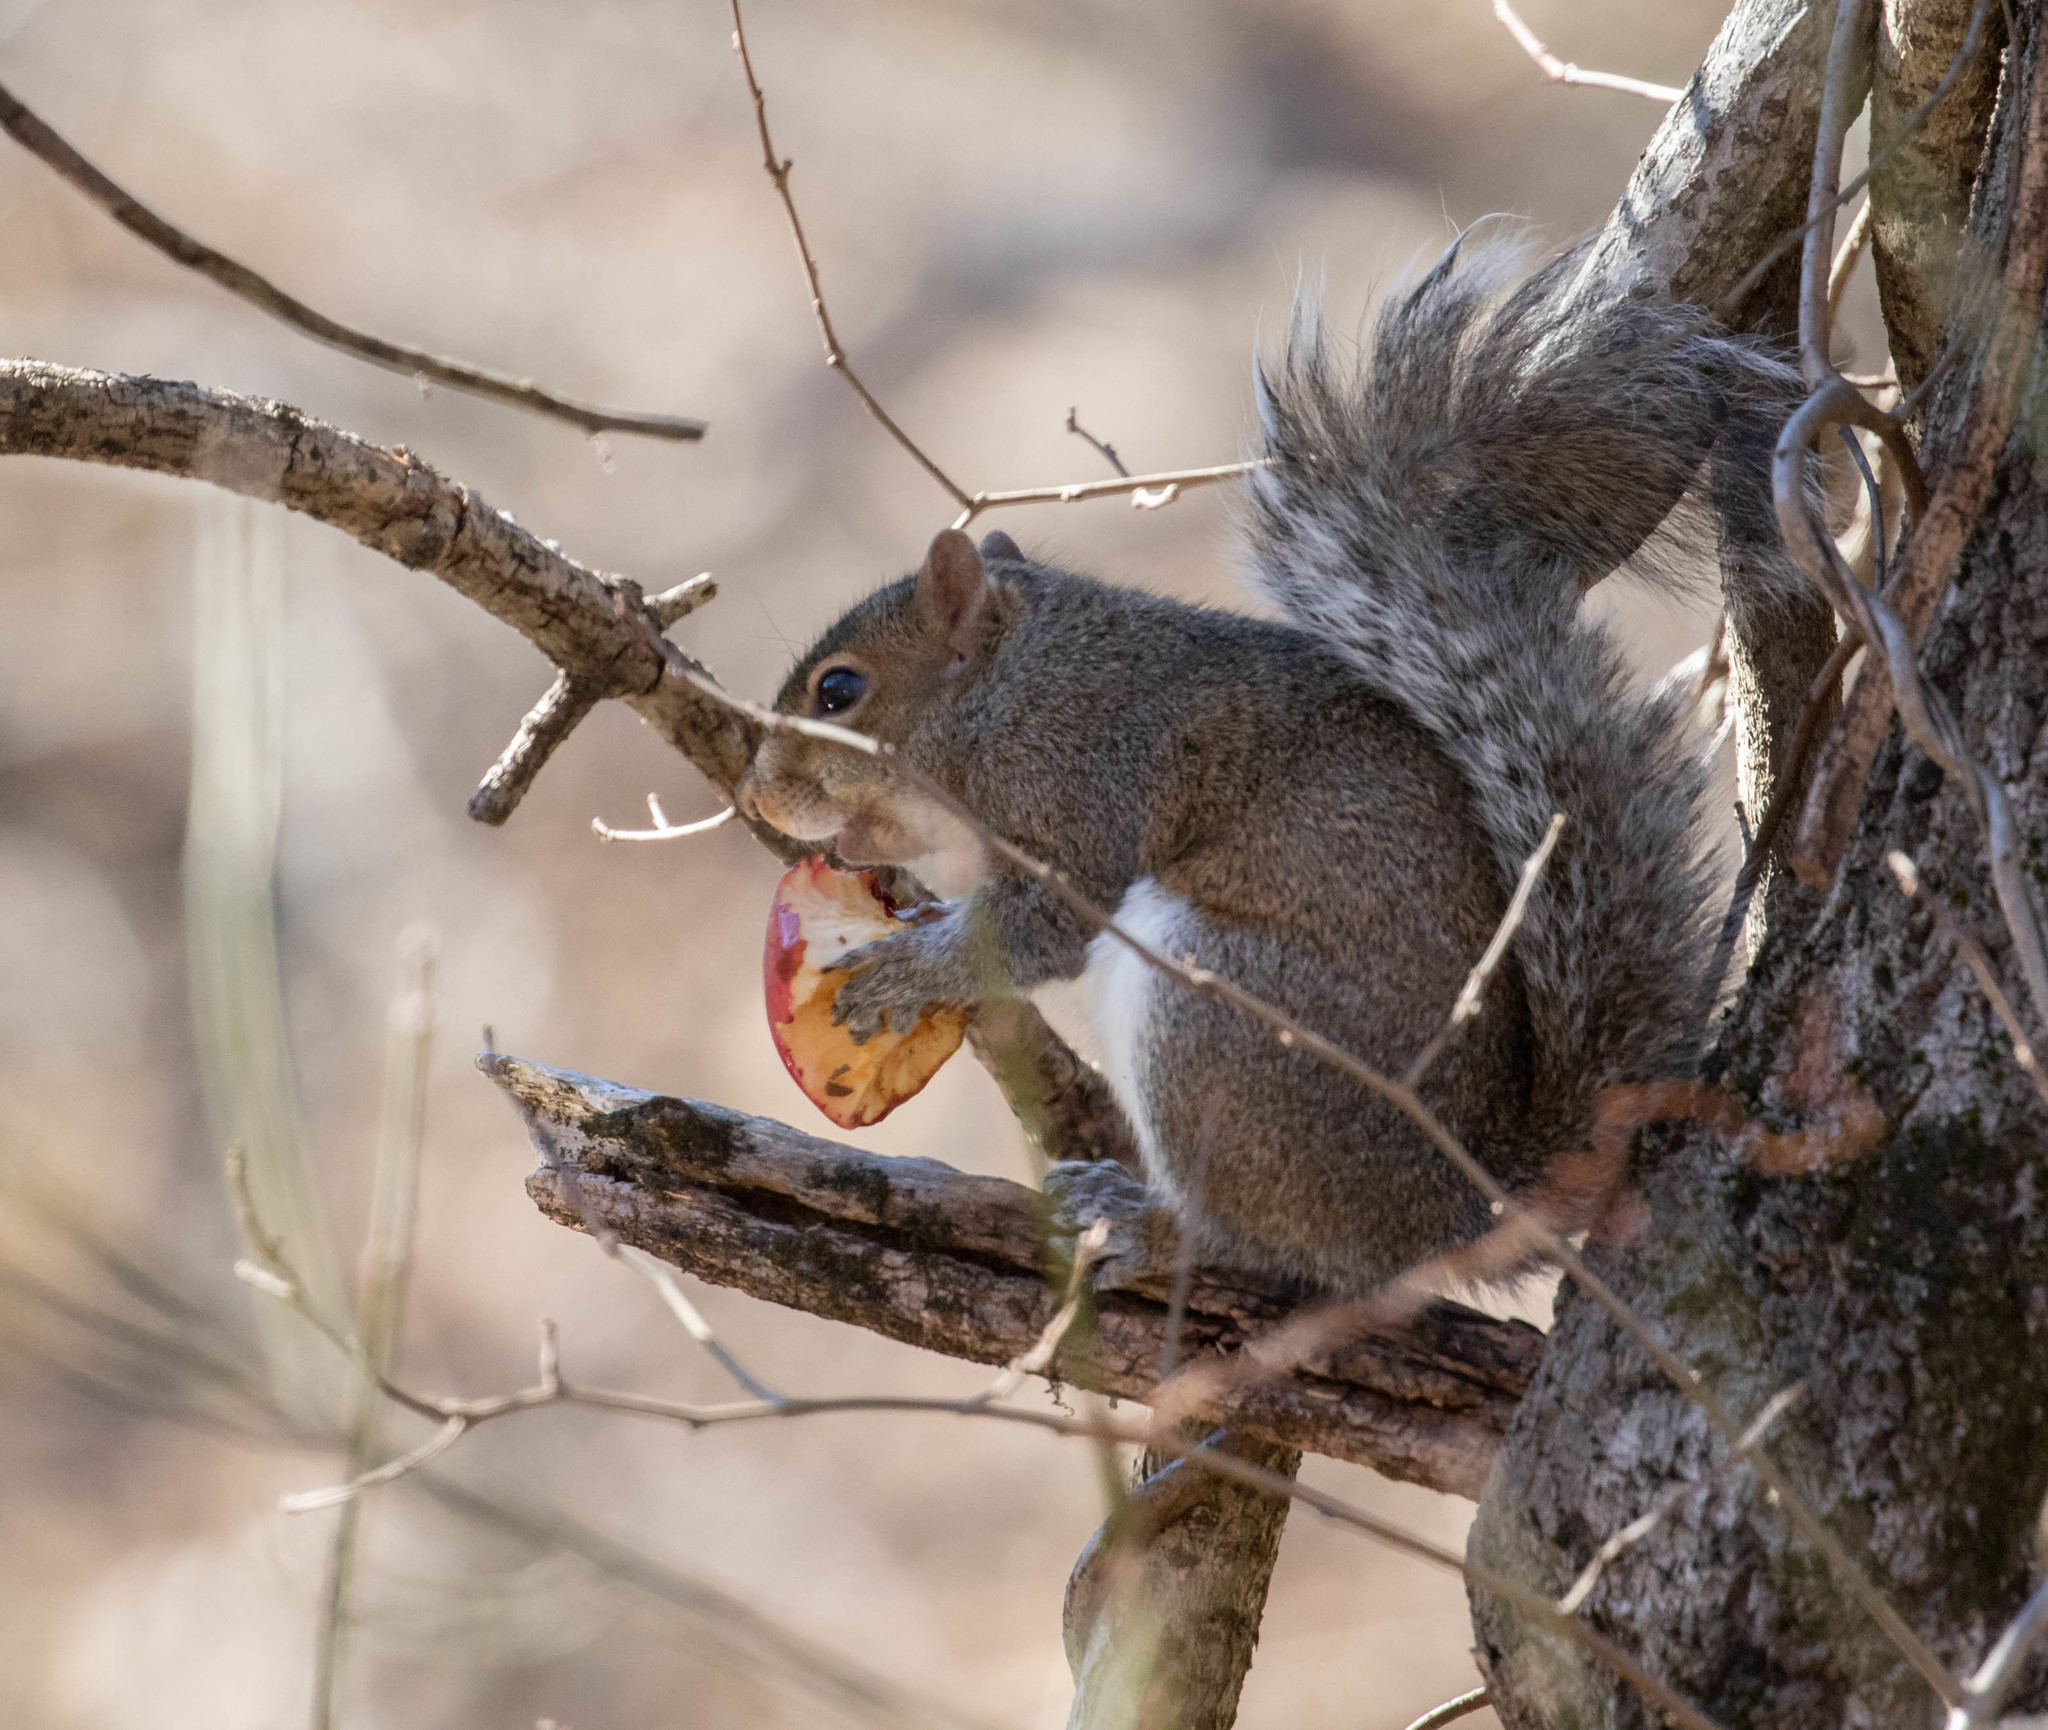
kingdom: Animalia
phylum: Chordata
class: Mammalia
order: Rodentia
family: Sciuridae
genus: Sciurus
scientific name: Sciurus carolinensis
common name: Eastern gray squirrel
